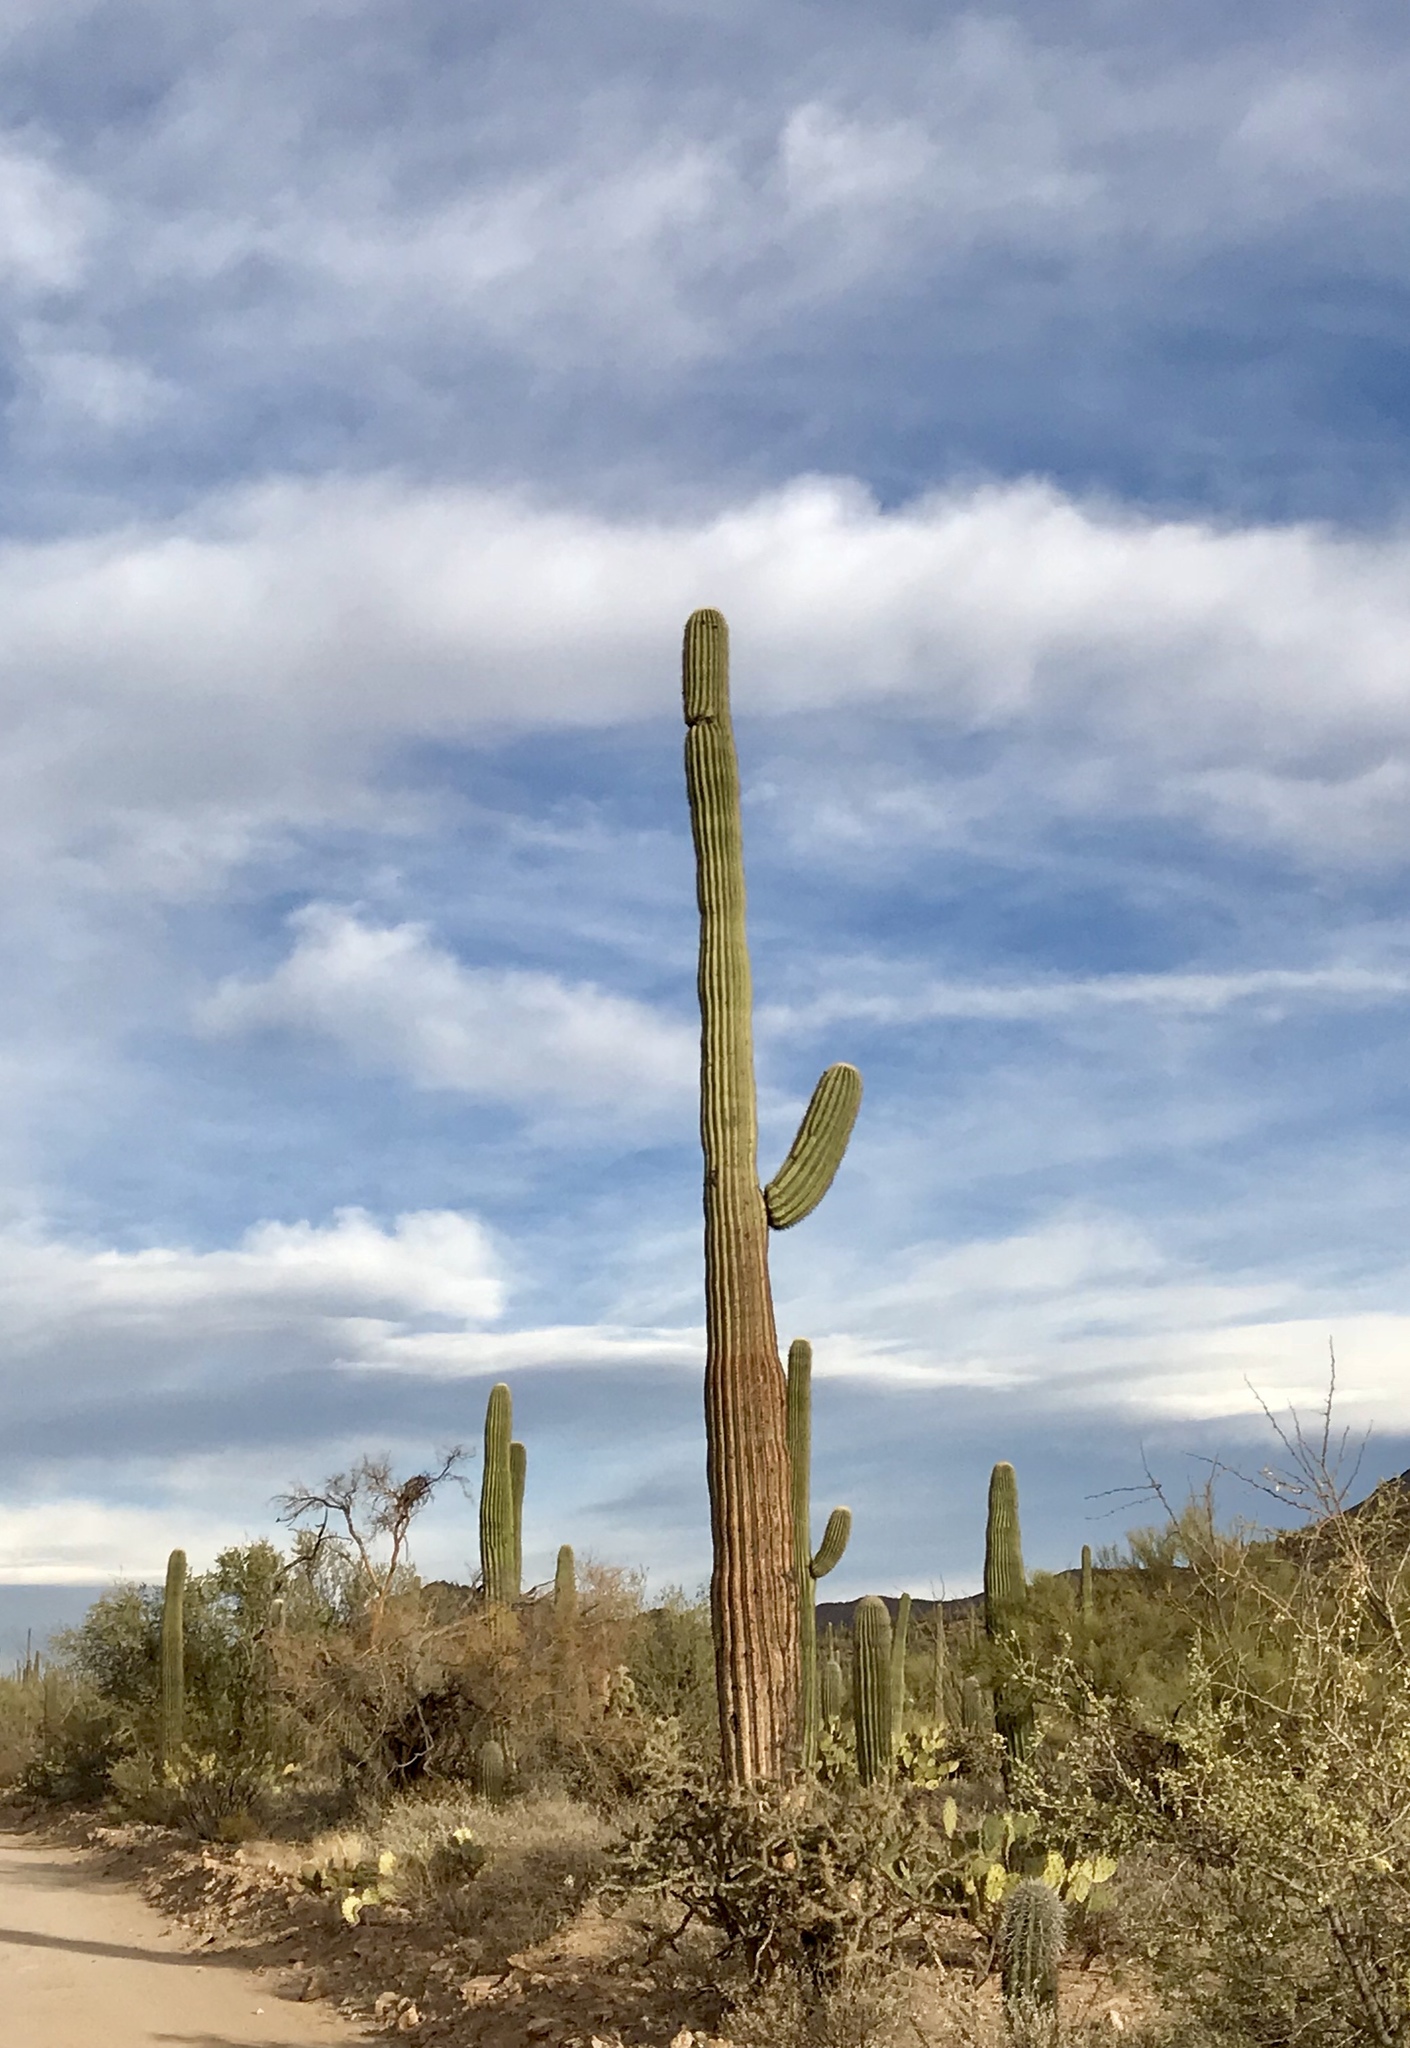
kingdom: Plantae
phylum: Tracheophyta
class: Magnoliopsida
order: Caryophyllales
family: Cactaceae
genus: Carnegiea
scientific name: Carnegiea gigantea
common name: Saguaro
